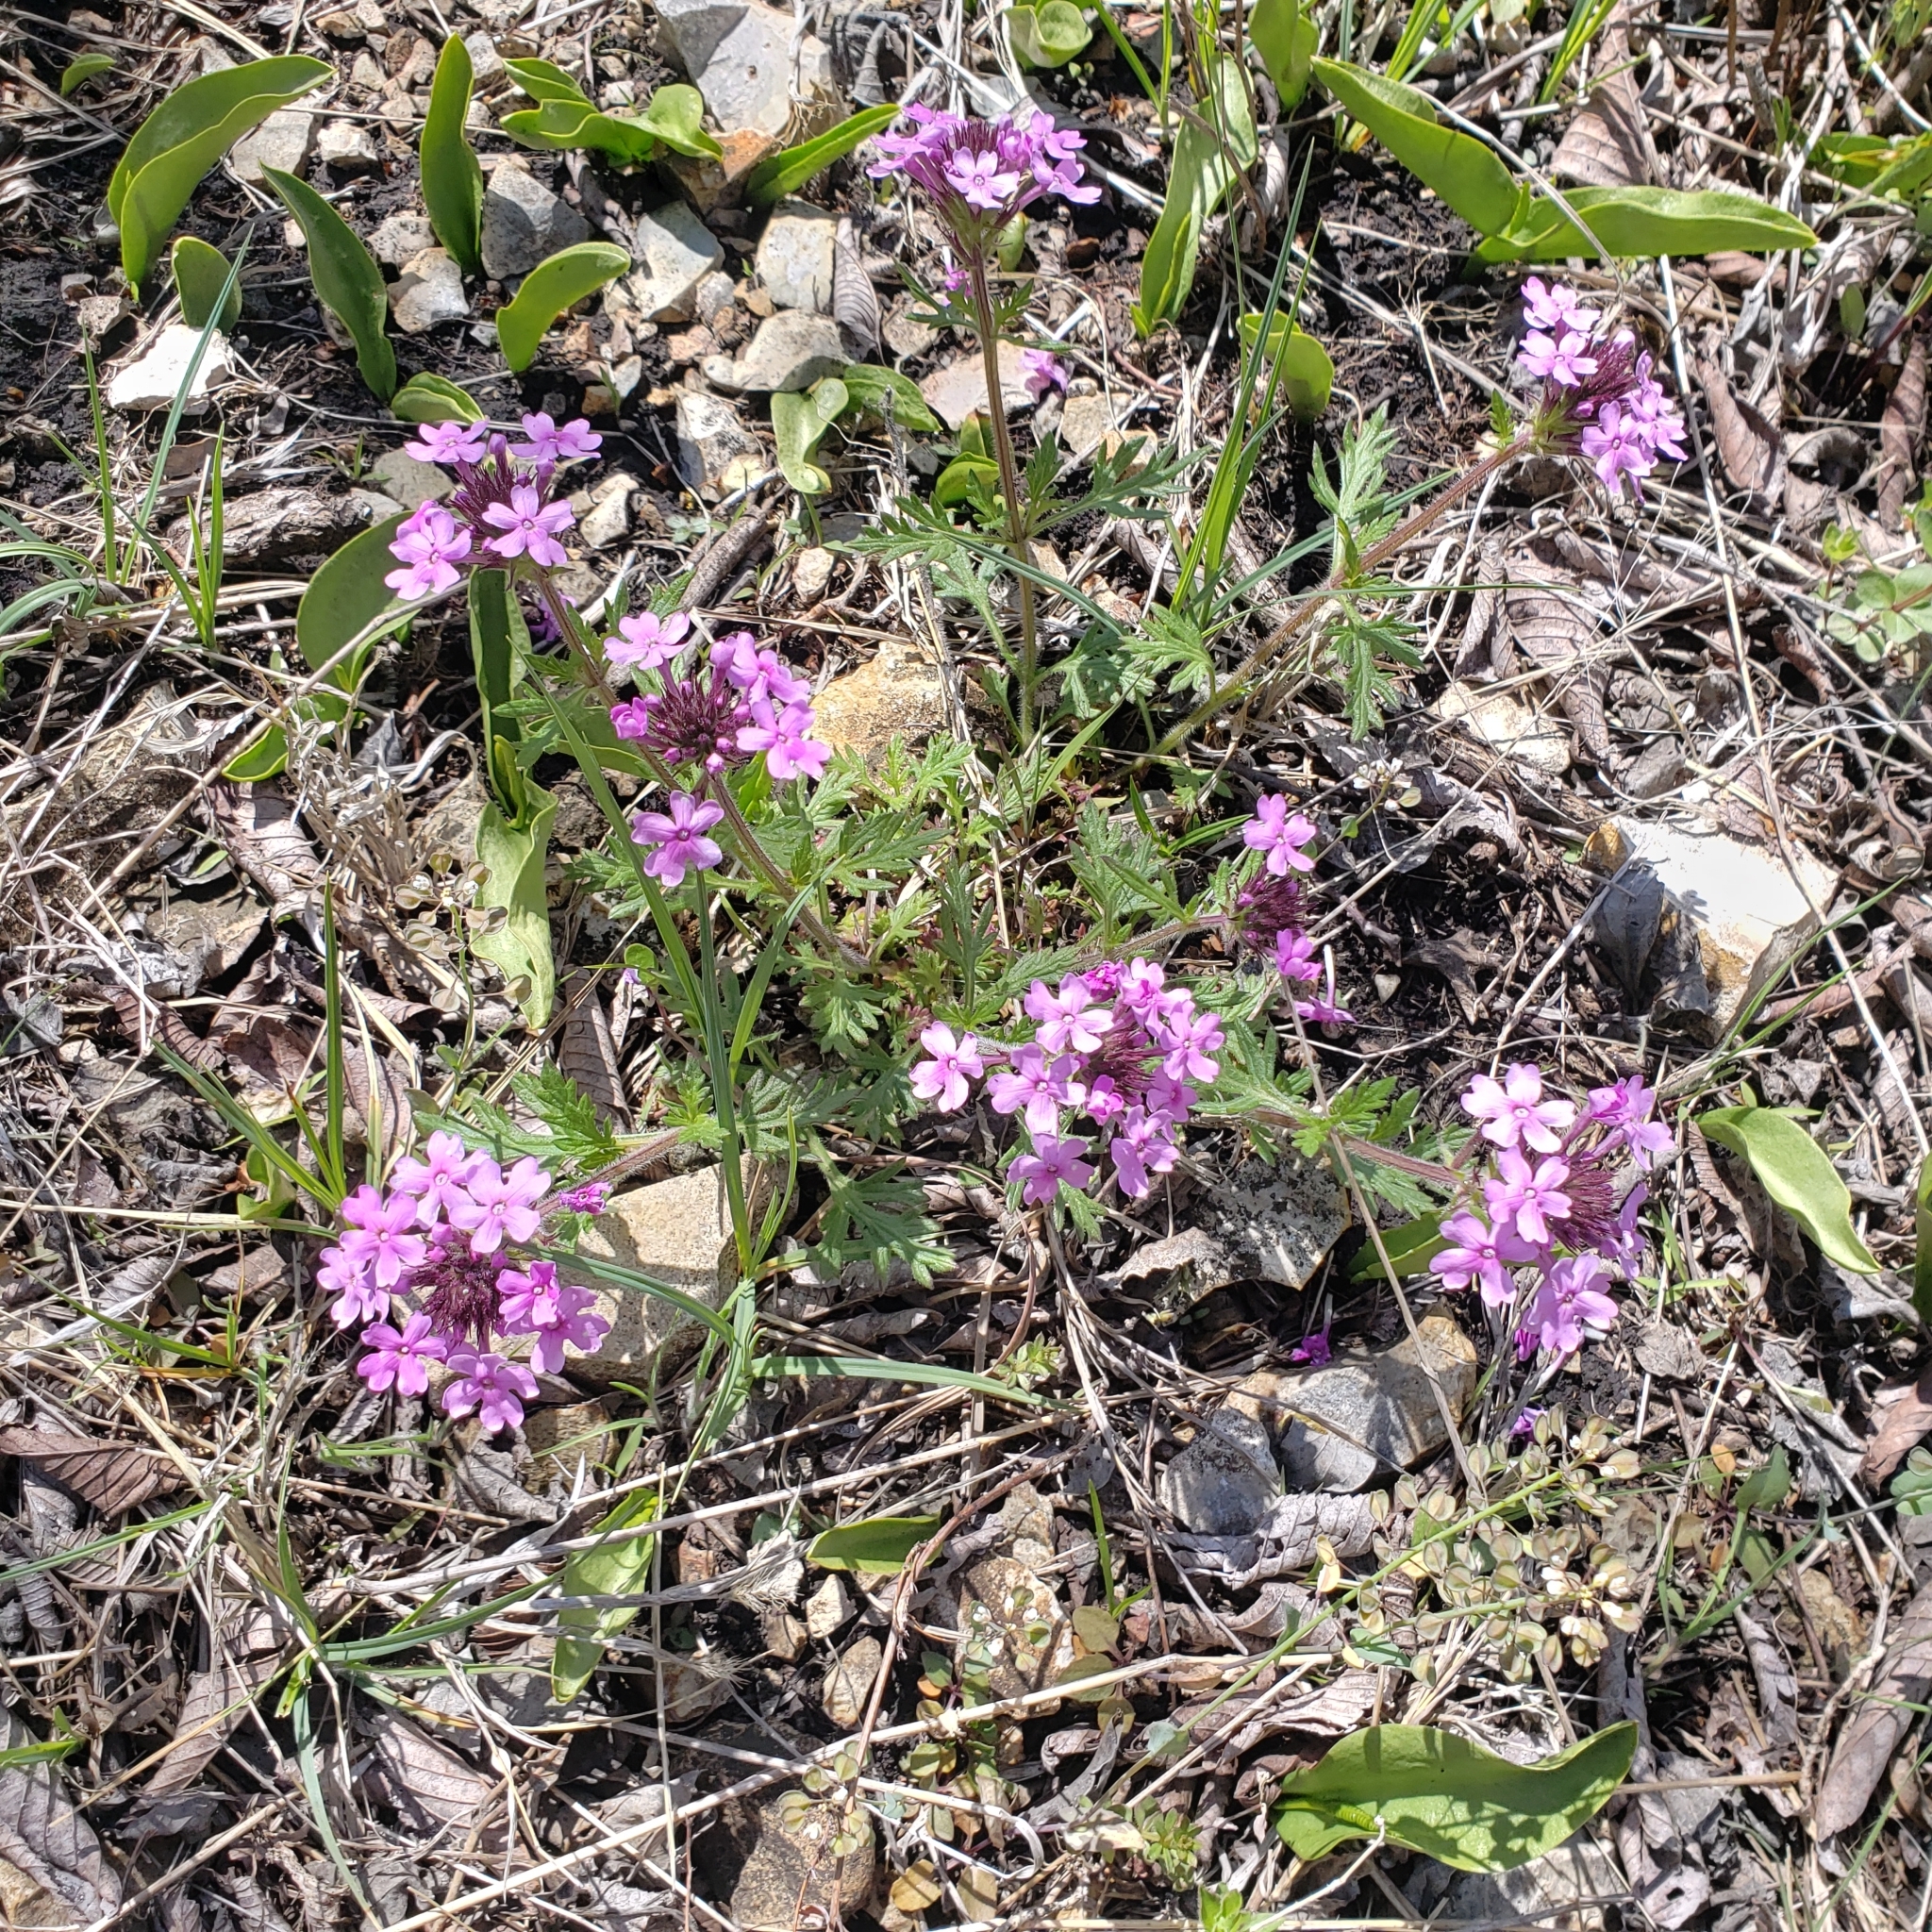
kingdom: Plantae
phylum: Tracheophyta
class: Magnoliopsida
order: Lamiales
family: Verbenaceae
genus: Verbena
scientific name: Verbena canadensis
